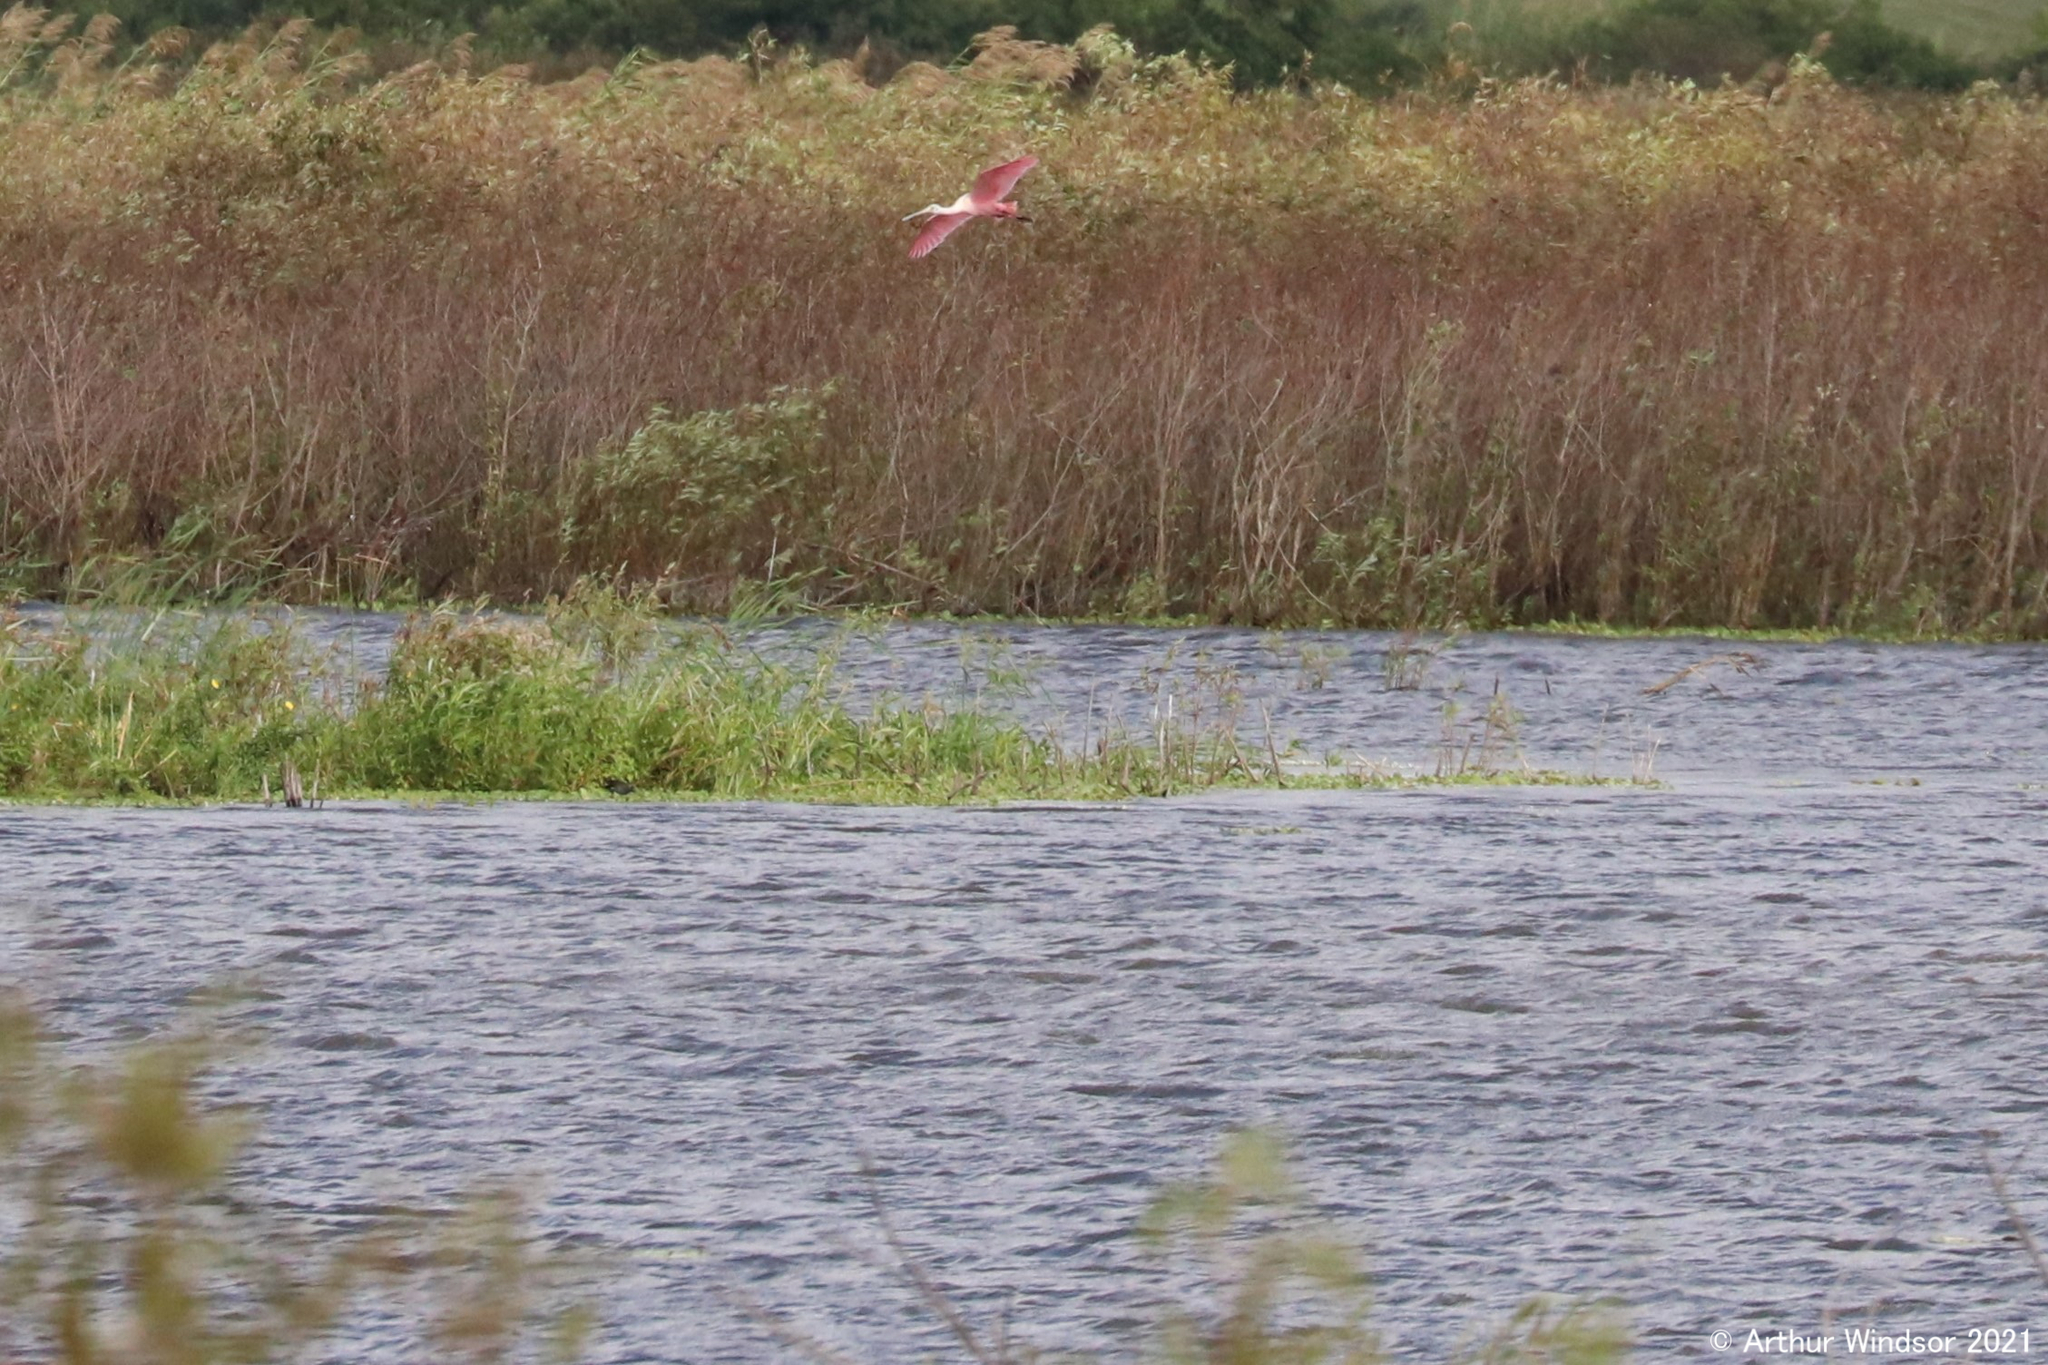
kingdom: Animalia
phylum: Chordata
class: Aves
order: Pelecaniformes
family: Threskiornithidae
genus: Platalea
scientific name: Platalea ajaja
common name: Roseate spoonbill
